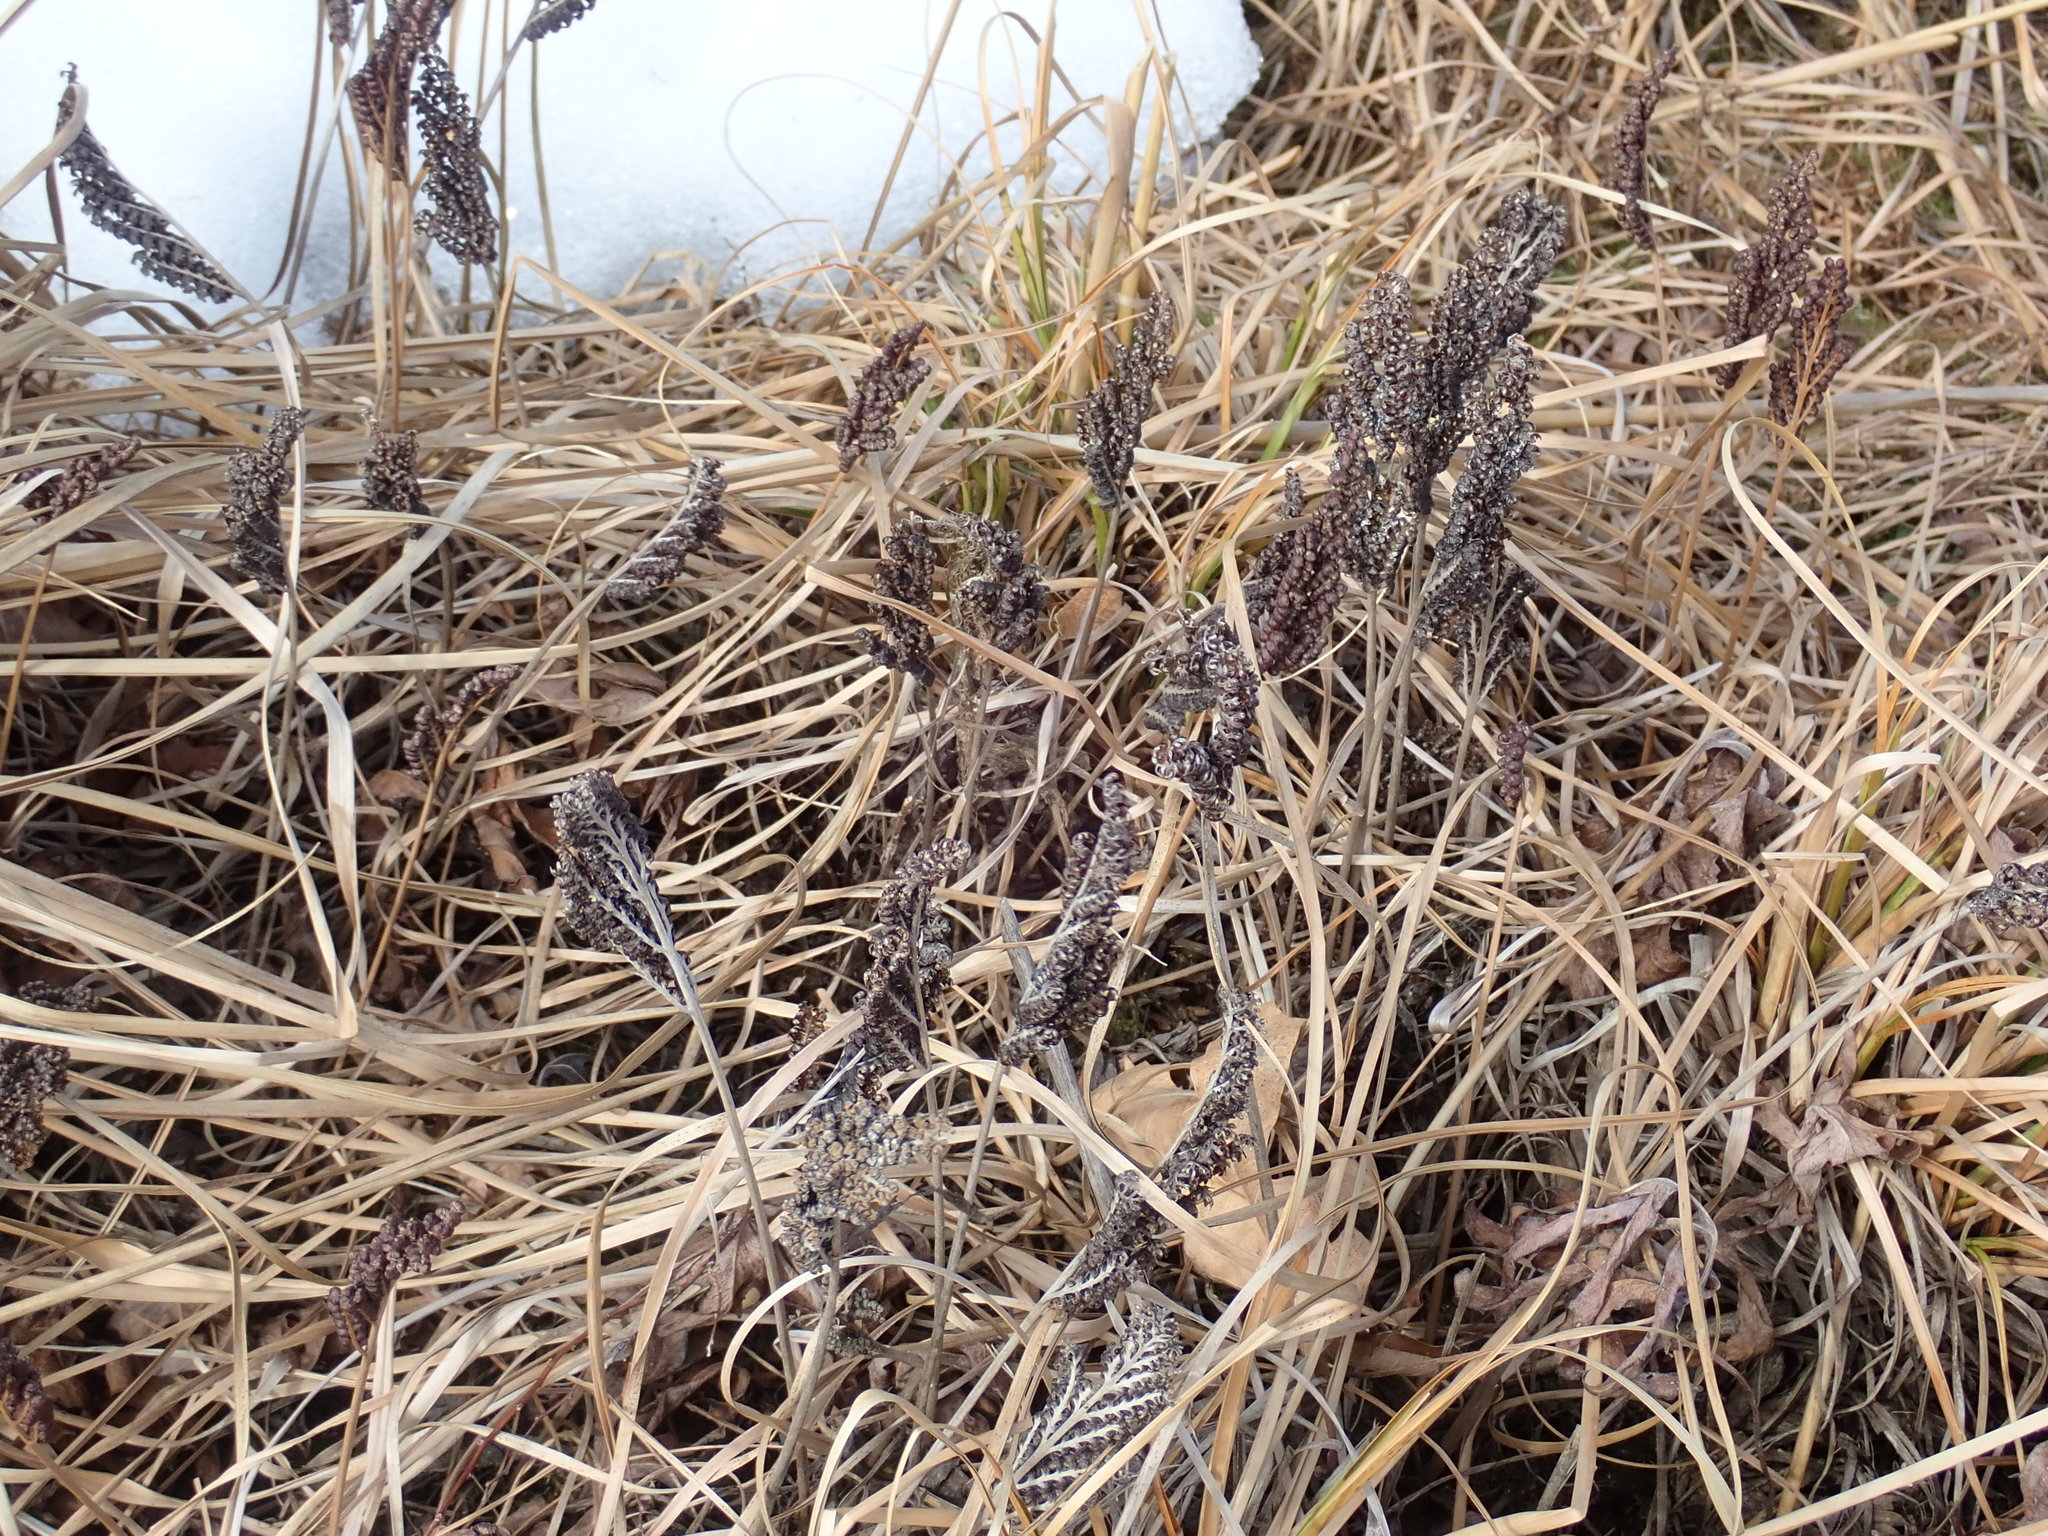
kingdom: Plantae
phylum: Tracheophyta
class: Polypodiopsida
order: Polypodiales
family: Onocleaceae
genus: Onoclea
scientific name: Onoclea sensibilis
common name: Sensitive fern
